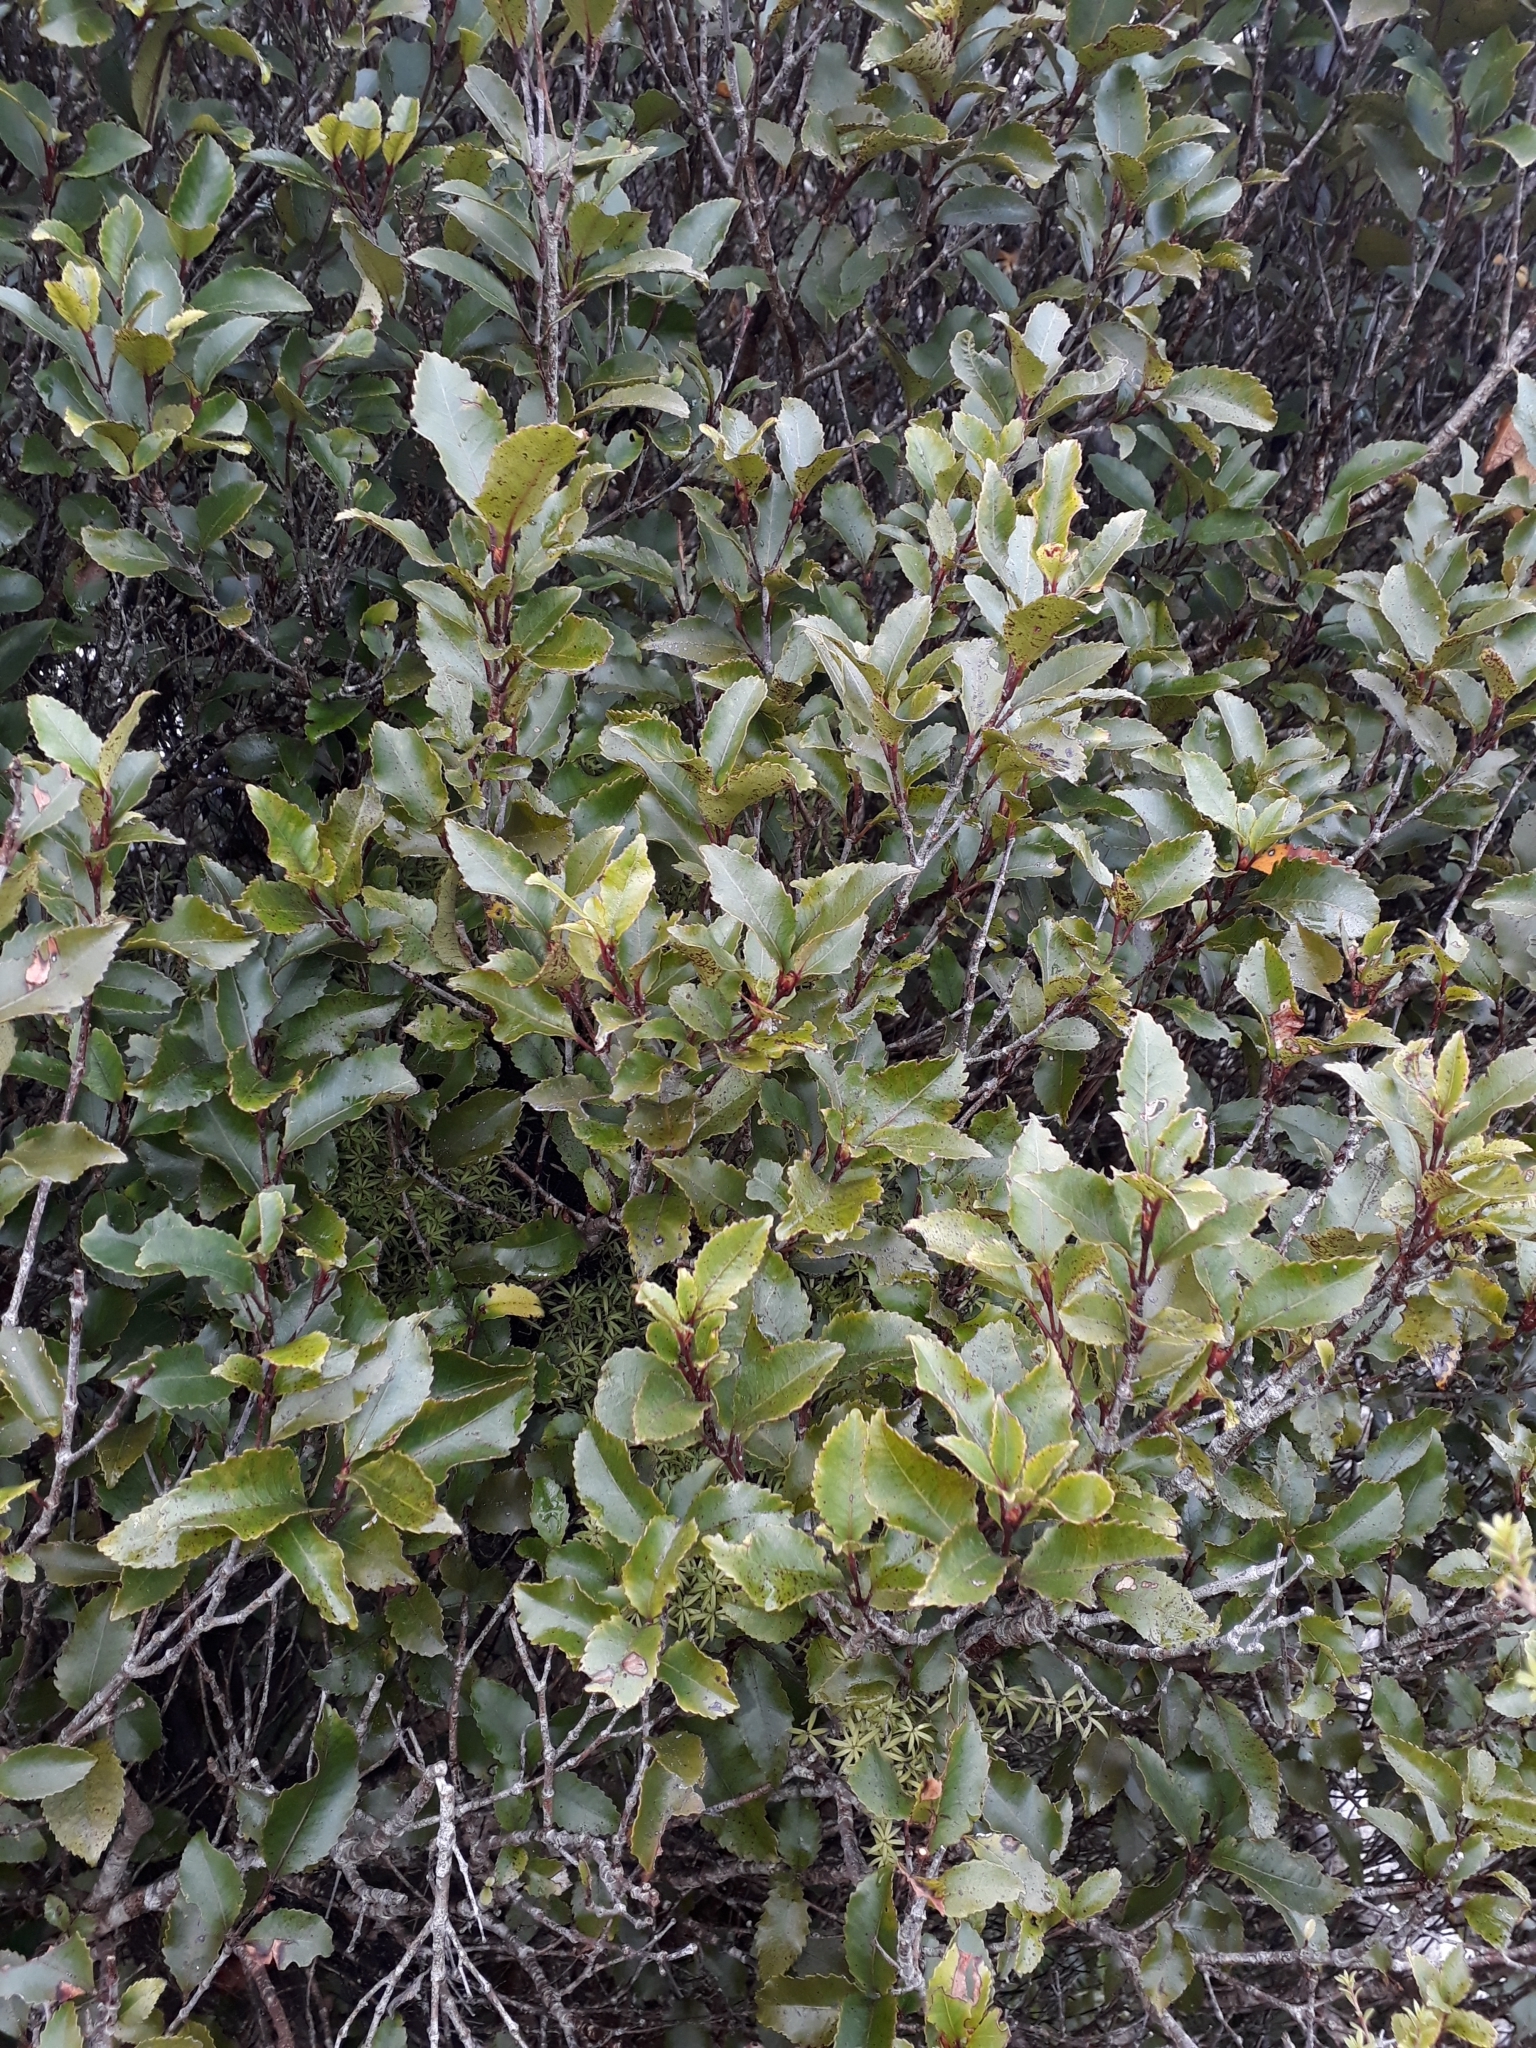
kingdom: Plantae
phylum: Tracheophyta
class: Magnoliopsida
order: Oxalidales
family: Cunoniaceae
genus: Pterophylla
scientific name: Pterophylla racemosa
